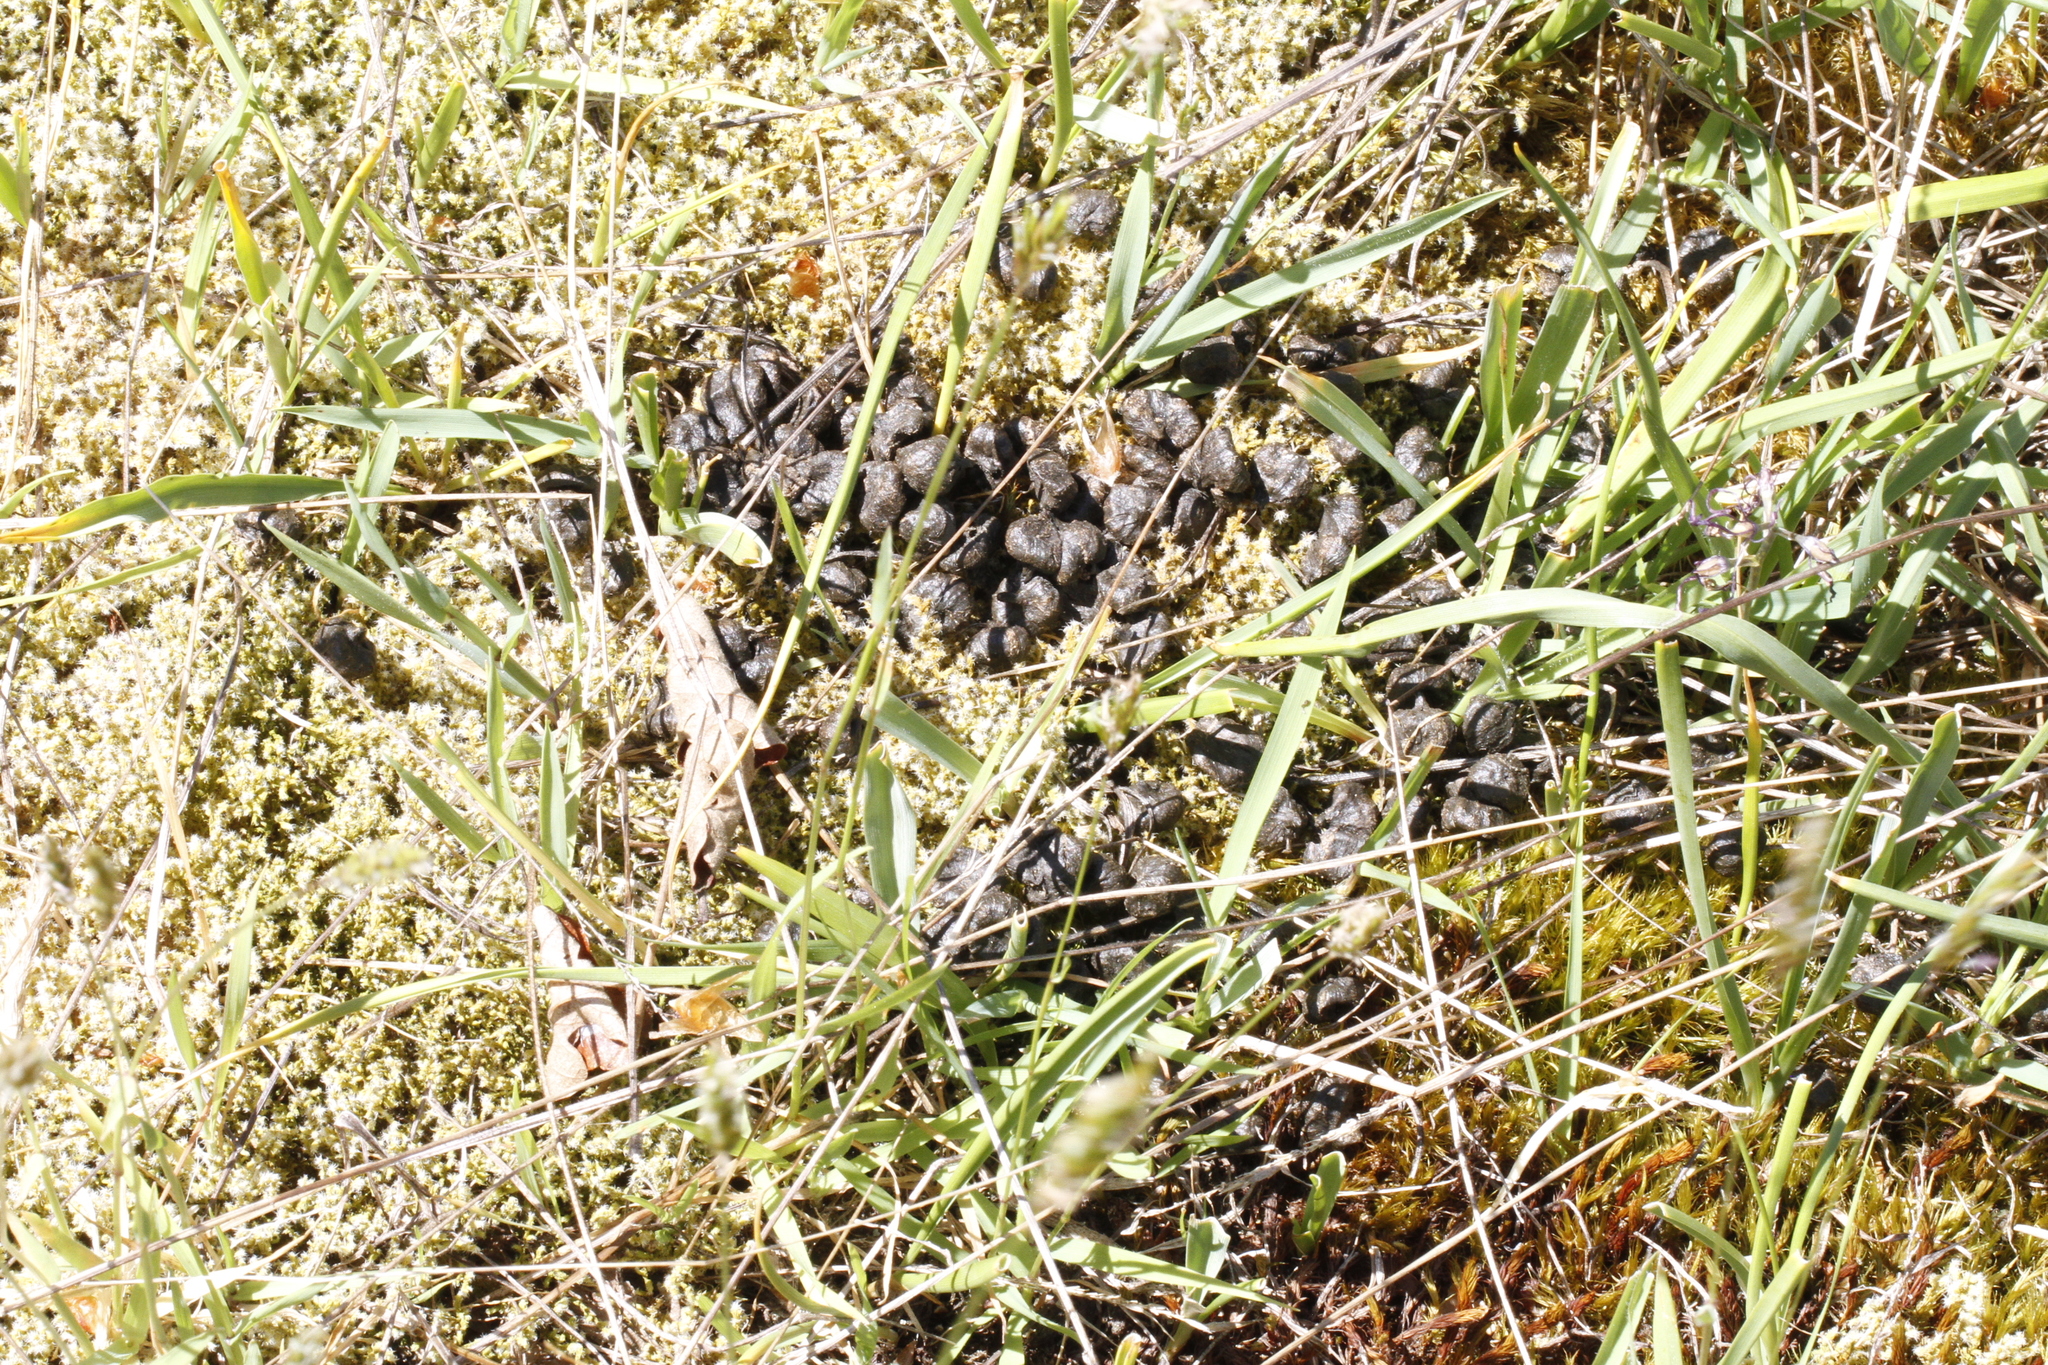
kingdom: Animalia
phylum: Chordata
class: Mammalia
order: Artiodactyla
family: Cervidae
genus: Odocoileus
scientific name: Odocoileus hemionus
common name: Mule deer
